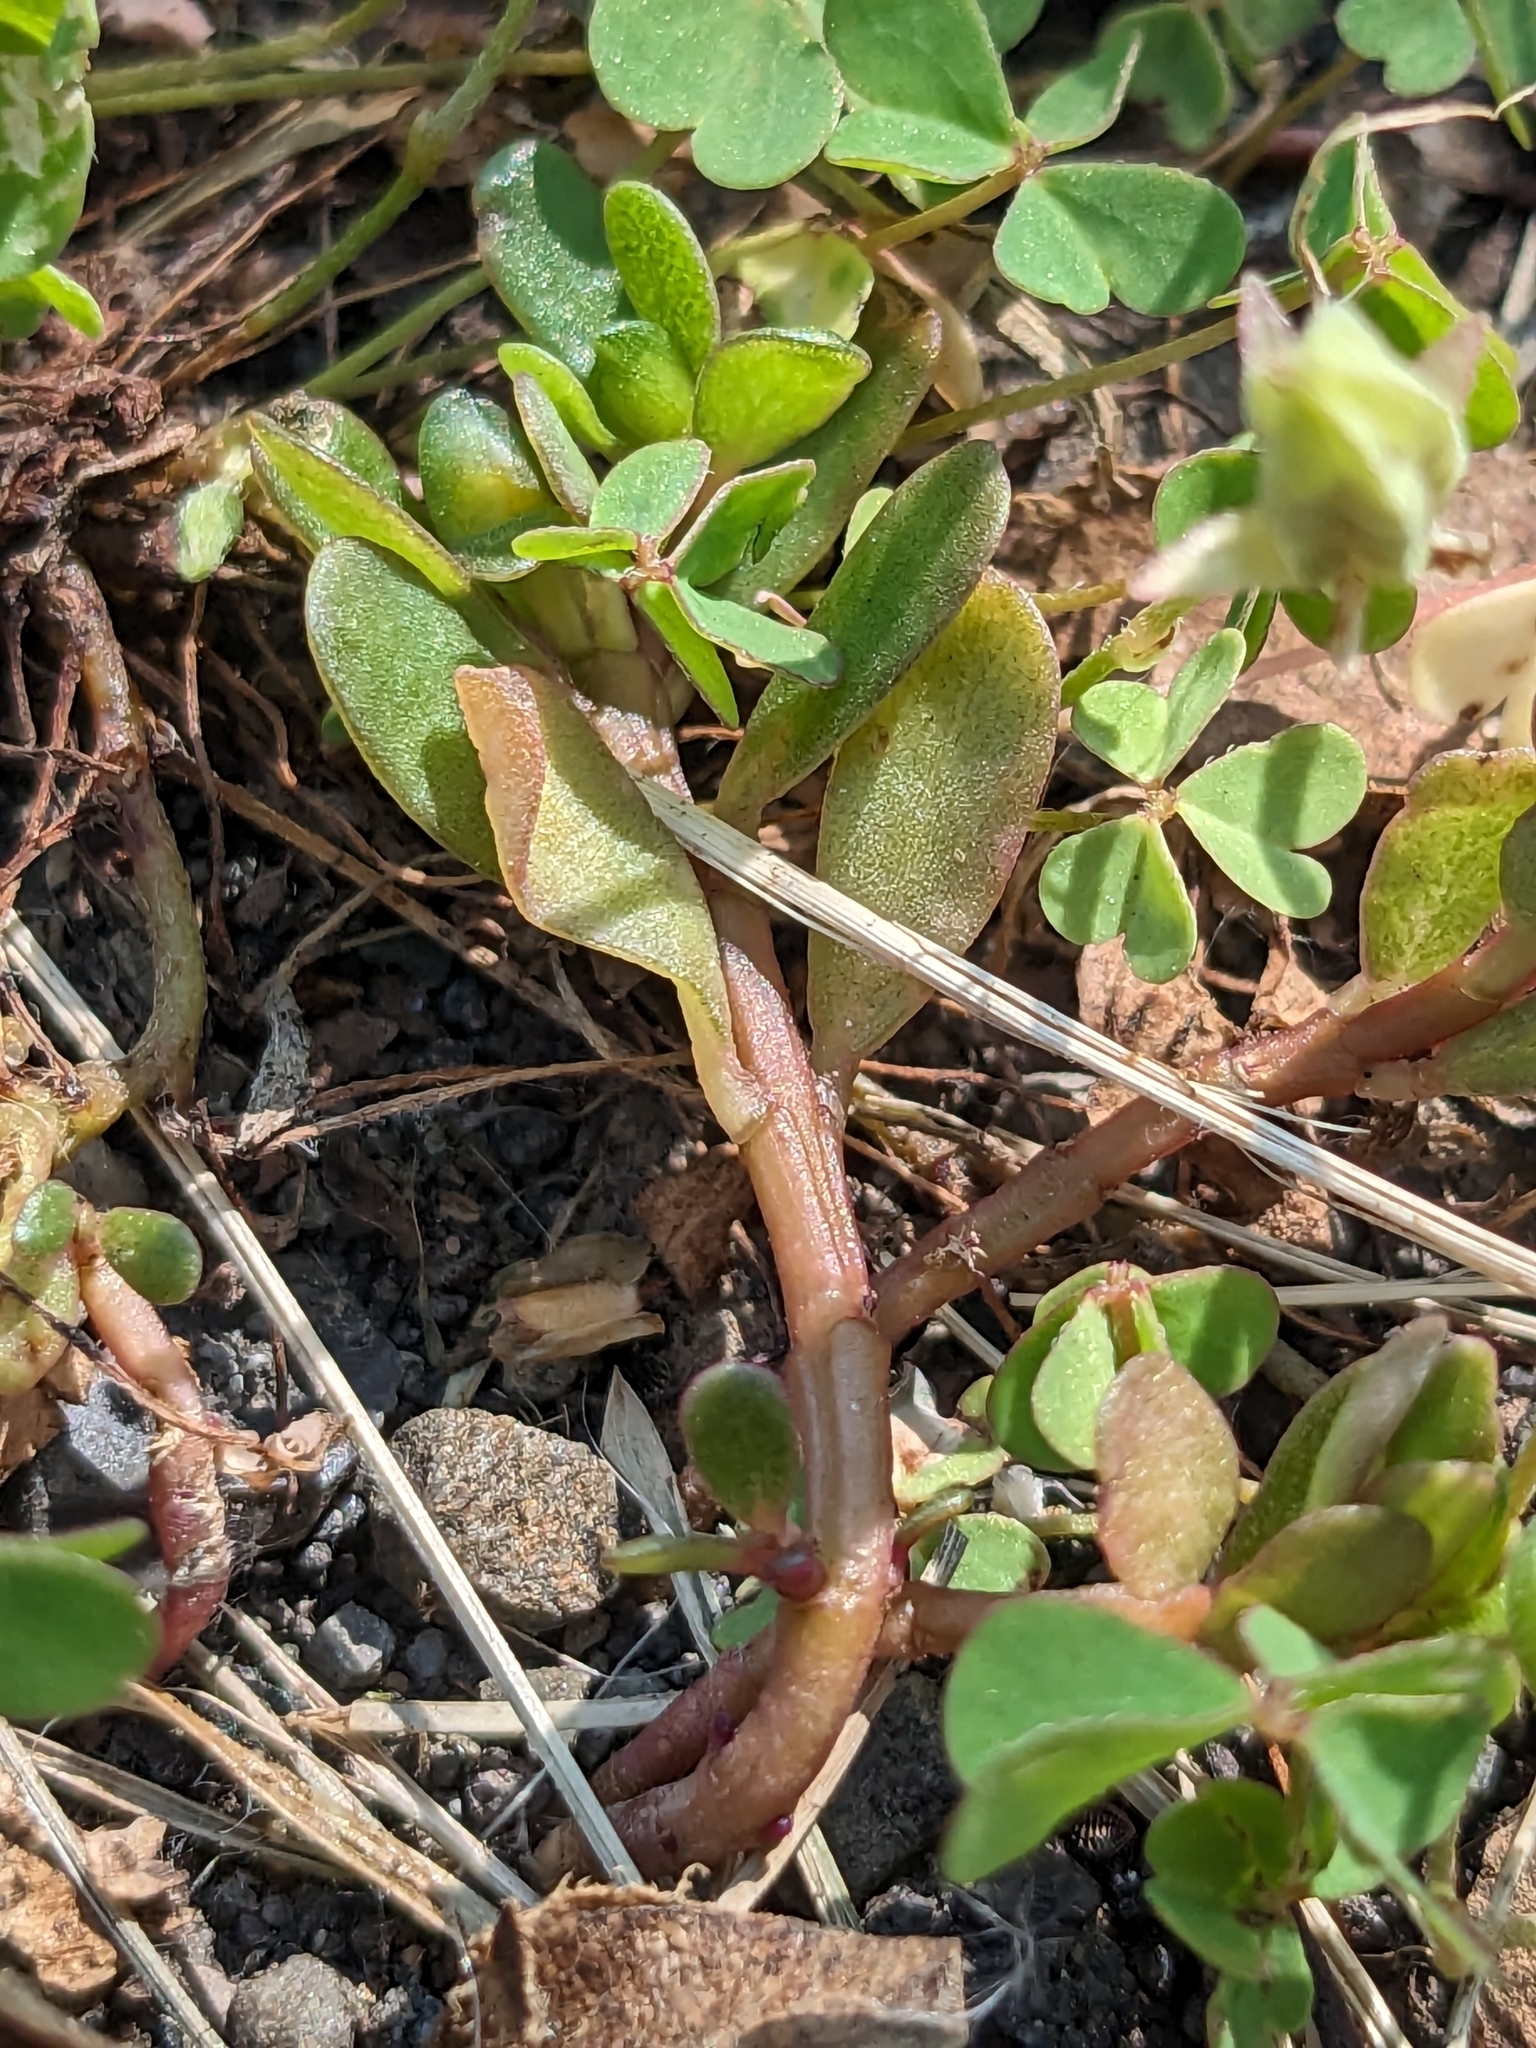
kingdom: Plantae
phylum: Tracheophyta
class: Magnoliopsida
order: Caryophyllales
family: Portulacaceae
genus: Portulaca
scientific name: Portulaca oleracea
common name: Common purslane
